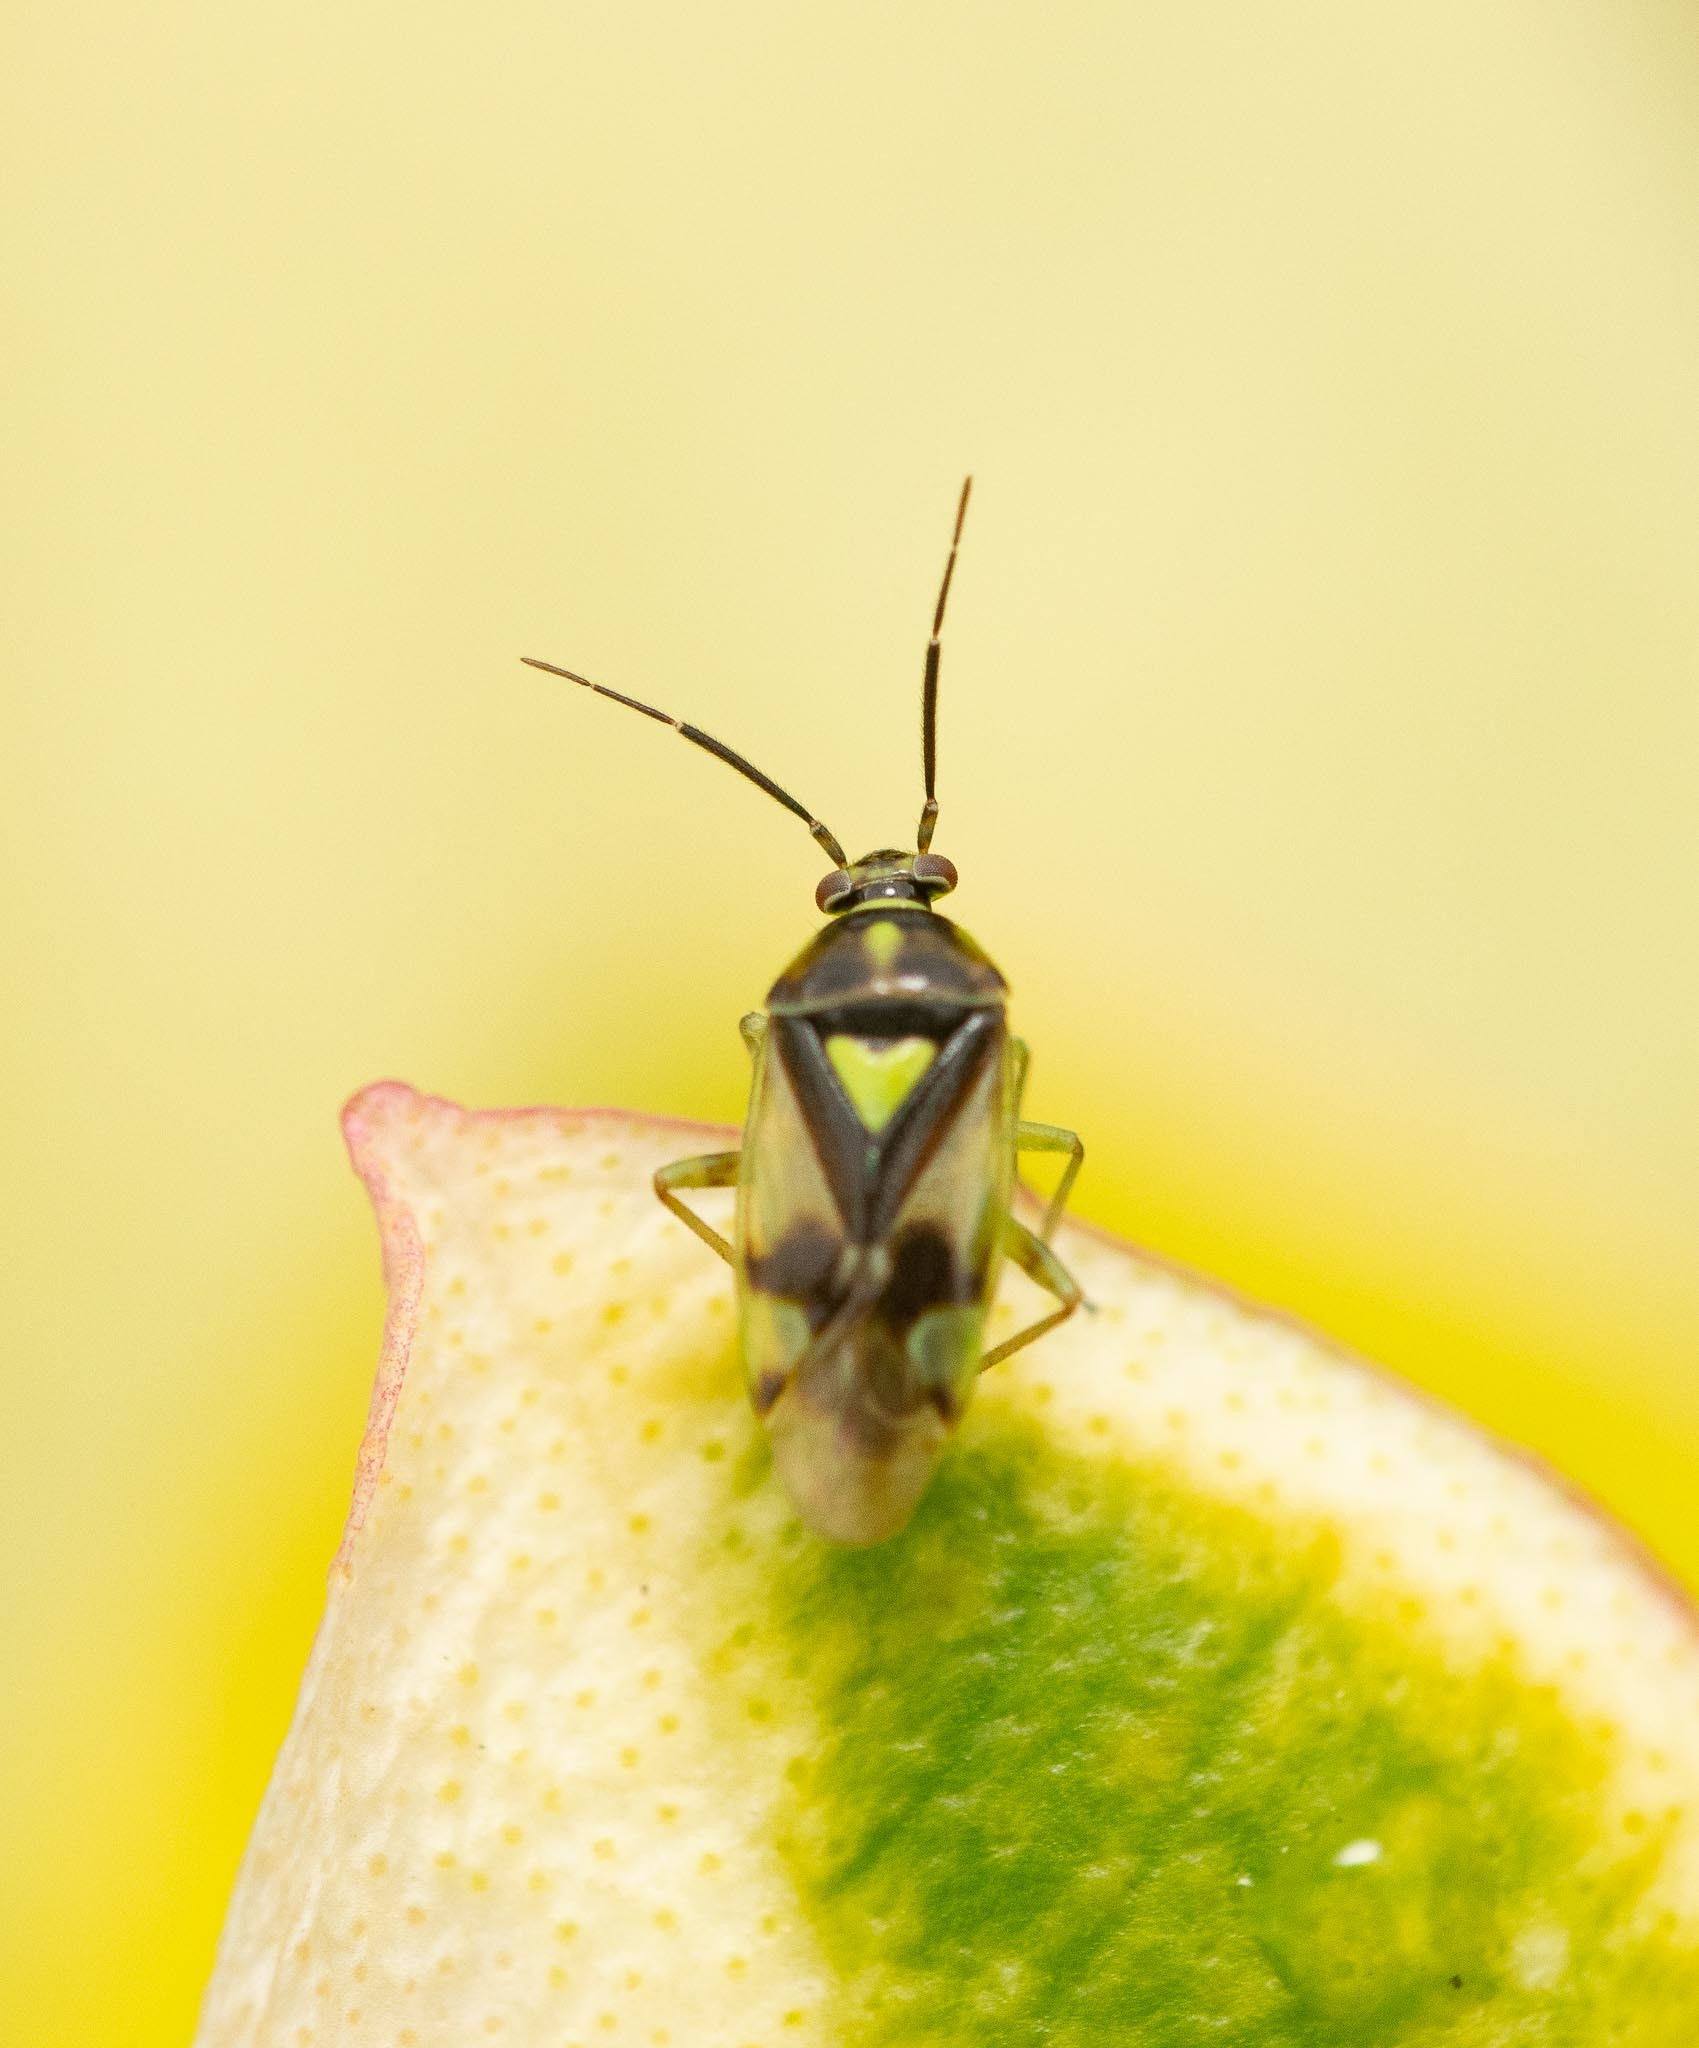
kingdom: Animalia
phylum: Arthropoda
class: Insecta
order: Hemiptera
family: Miridae
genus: Orthops
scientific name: Orthops campestris
